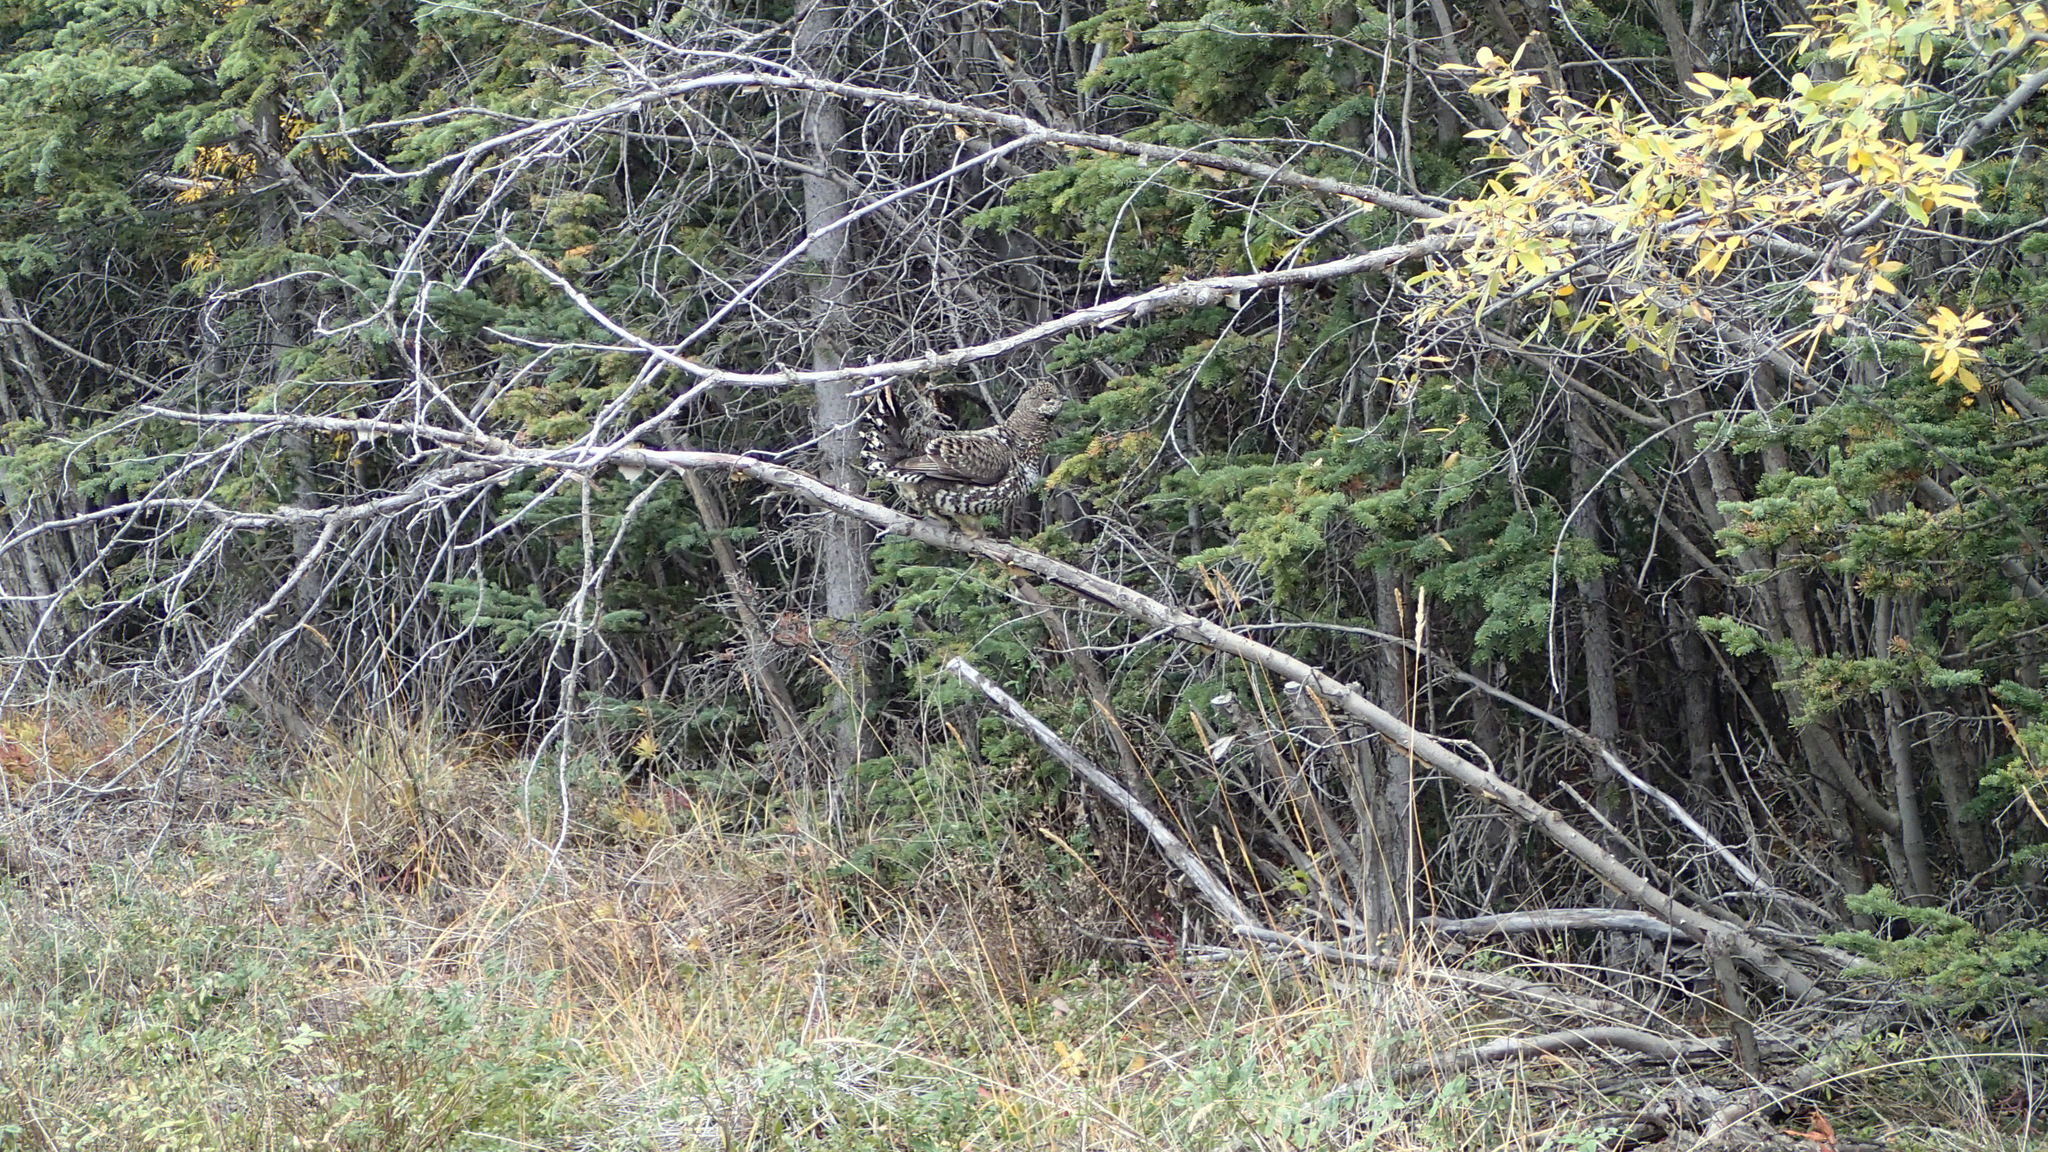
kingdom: Animalia
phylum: Chordata
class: Aves
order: Galliformes
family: Phasianidae
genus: Canachites
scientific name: Canachites canadensis
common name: Spruce grouse
